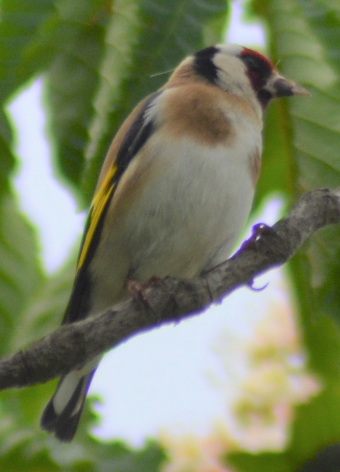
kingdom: Animalia
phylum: Chordata
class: Aves
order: Passeriformes
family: Fringillidae
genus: Carduelis
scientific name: Carduelis carduelis
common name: European goldfinch
